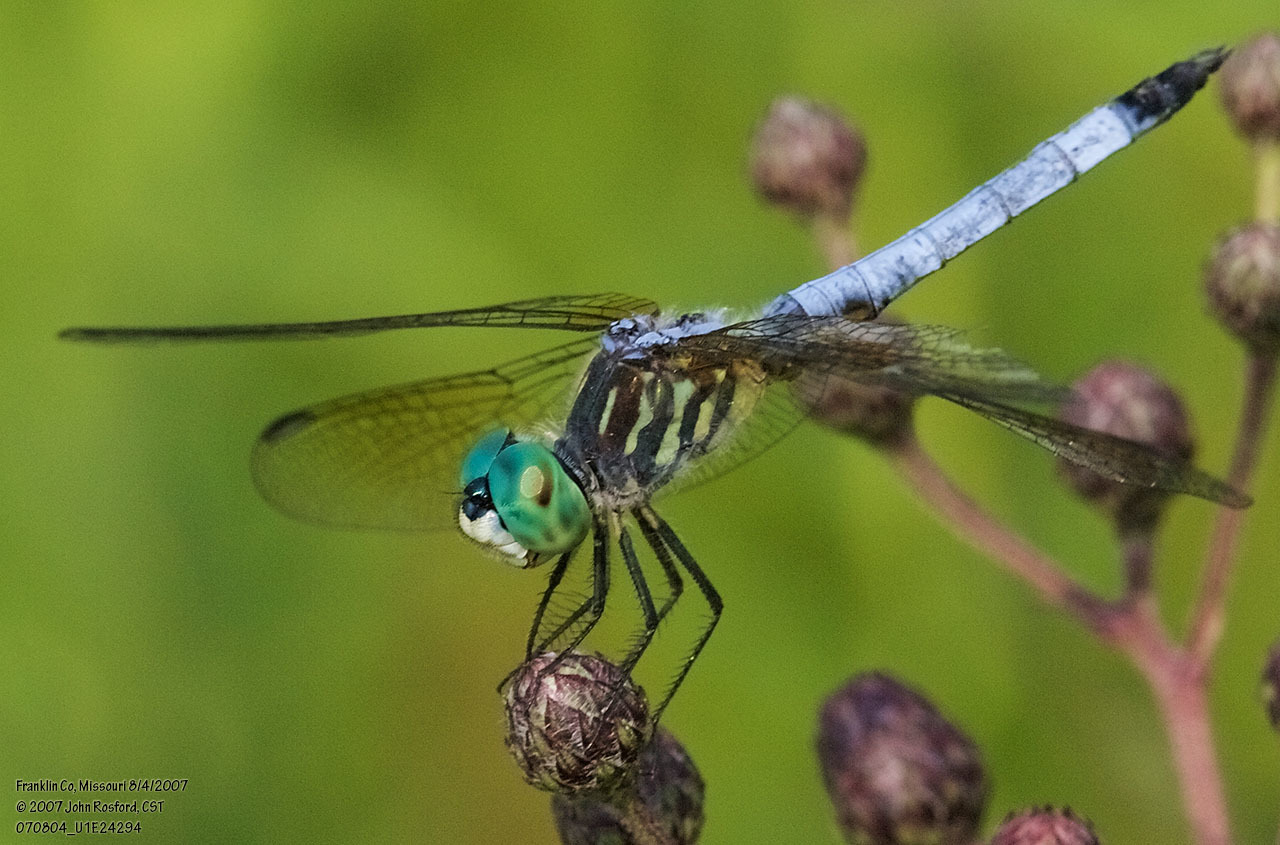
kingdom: Animalia
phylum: Arthropoda
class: Insecta
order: Odonata
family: Libellulidae
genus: Pachydiplax
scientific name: Pachydiplax longipennis
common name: Blue dasher
